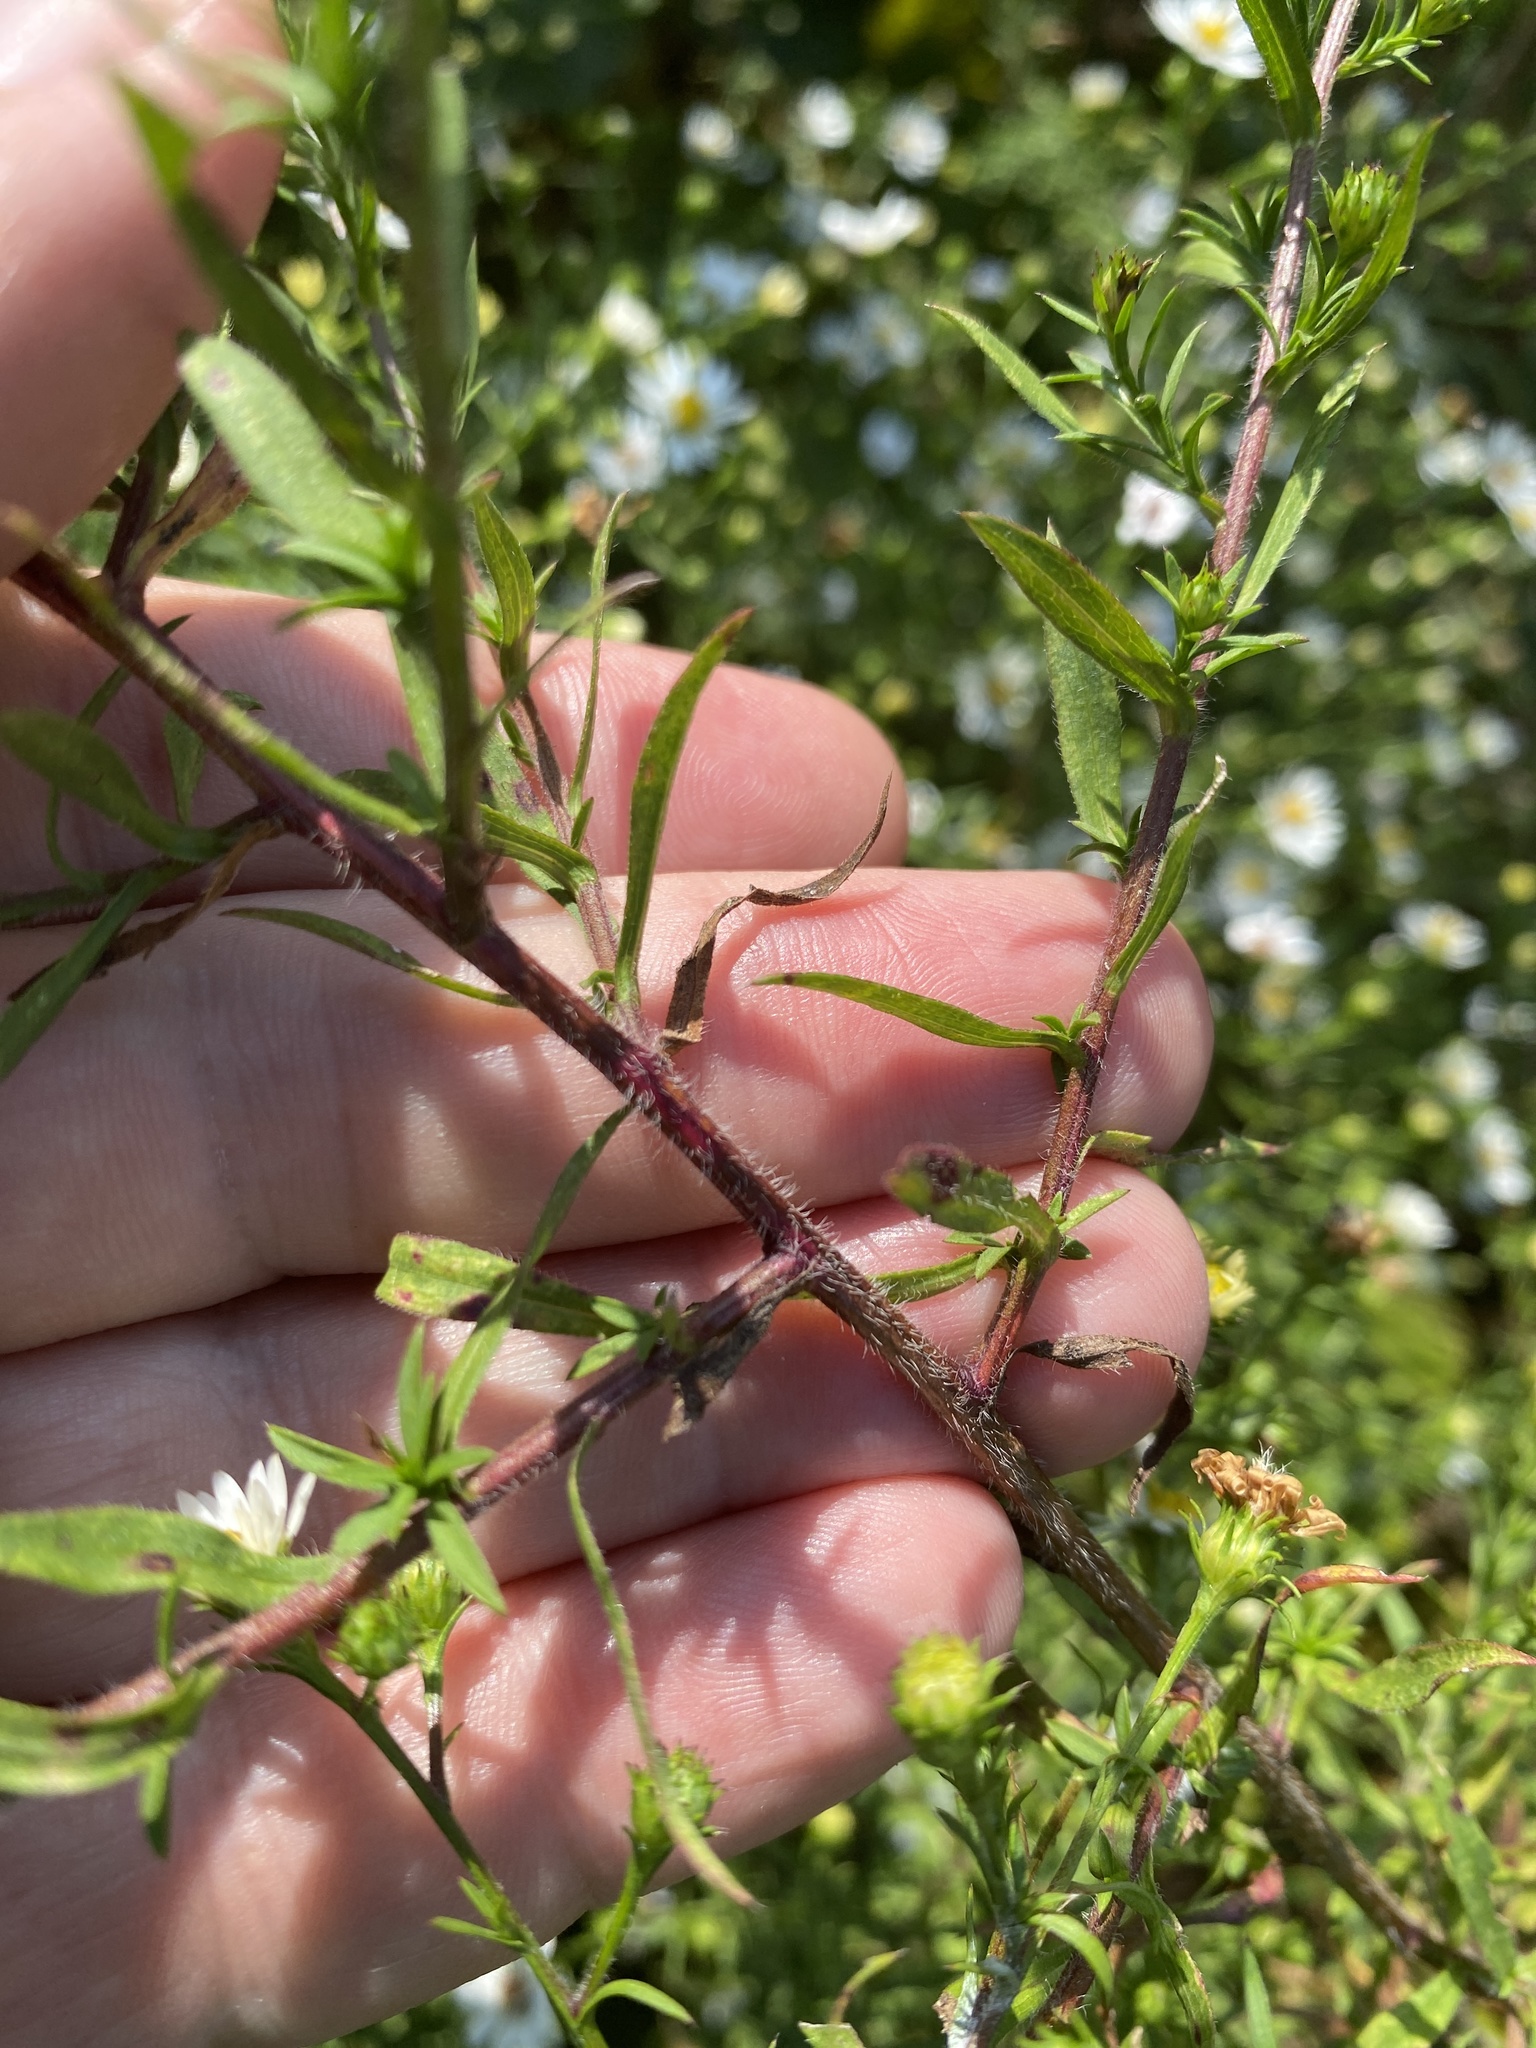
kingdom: Plantae
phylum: Tracheophyta
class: Magnoliopsida
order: Asterales
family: Asteraceae
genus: Symphyotrichum
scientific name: Symphyotrichum pilosum
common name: Awl aster
